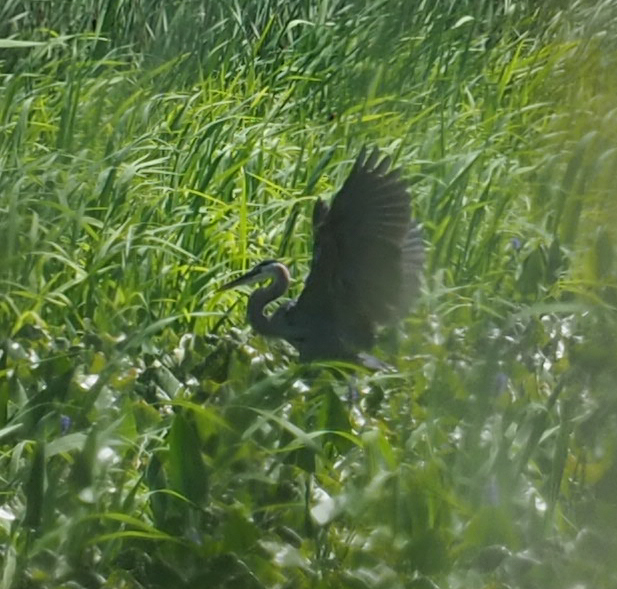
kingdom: Animalia
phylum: Chordata
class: Aves
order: Pelecaniformes
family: Ardeidae
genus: Ardea
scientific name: Ardea herodias
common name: Great blue heron
